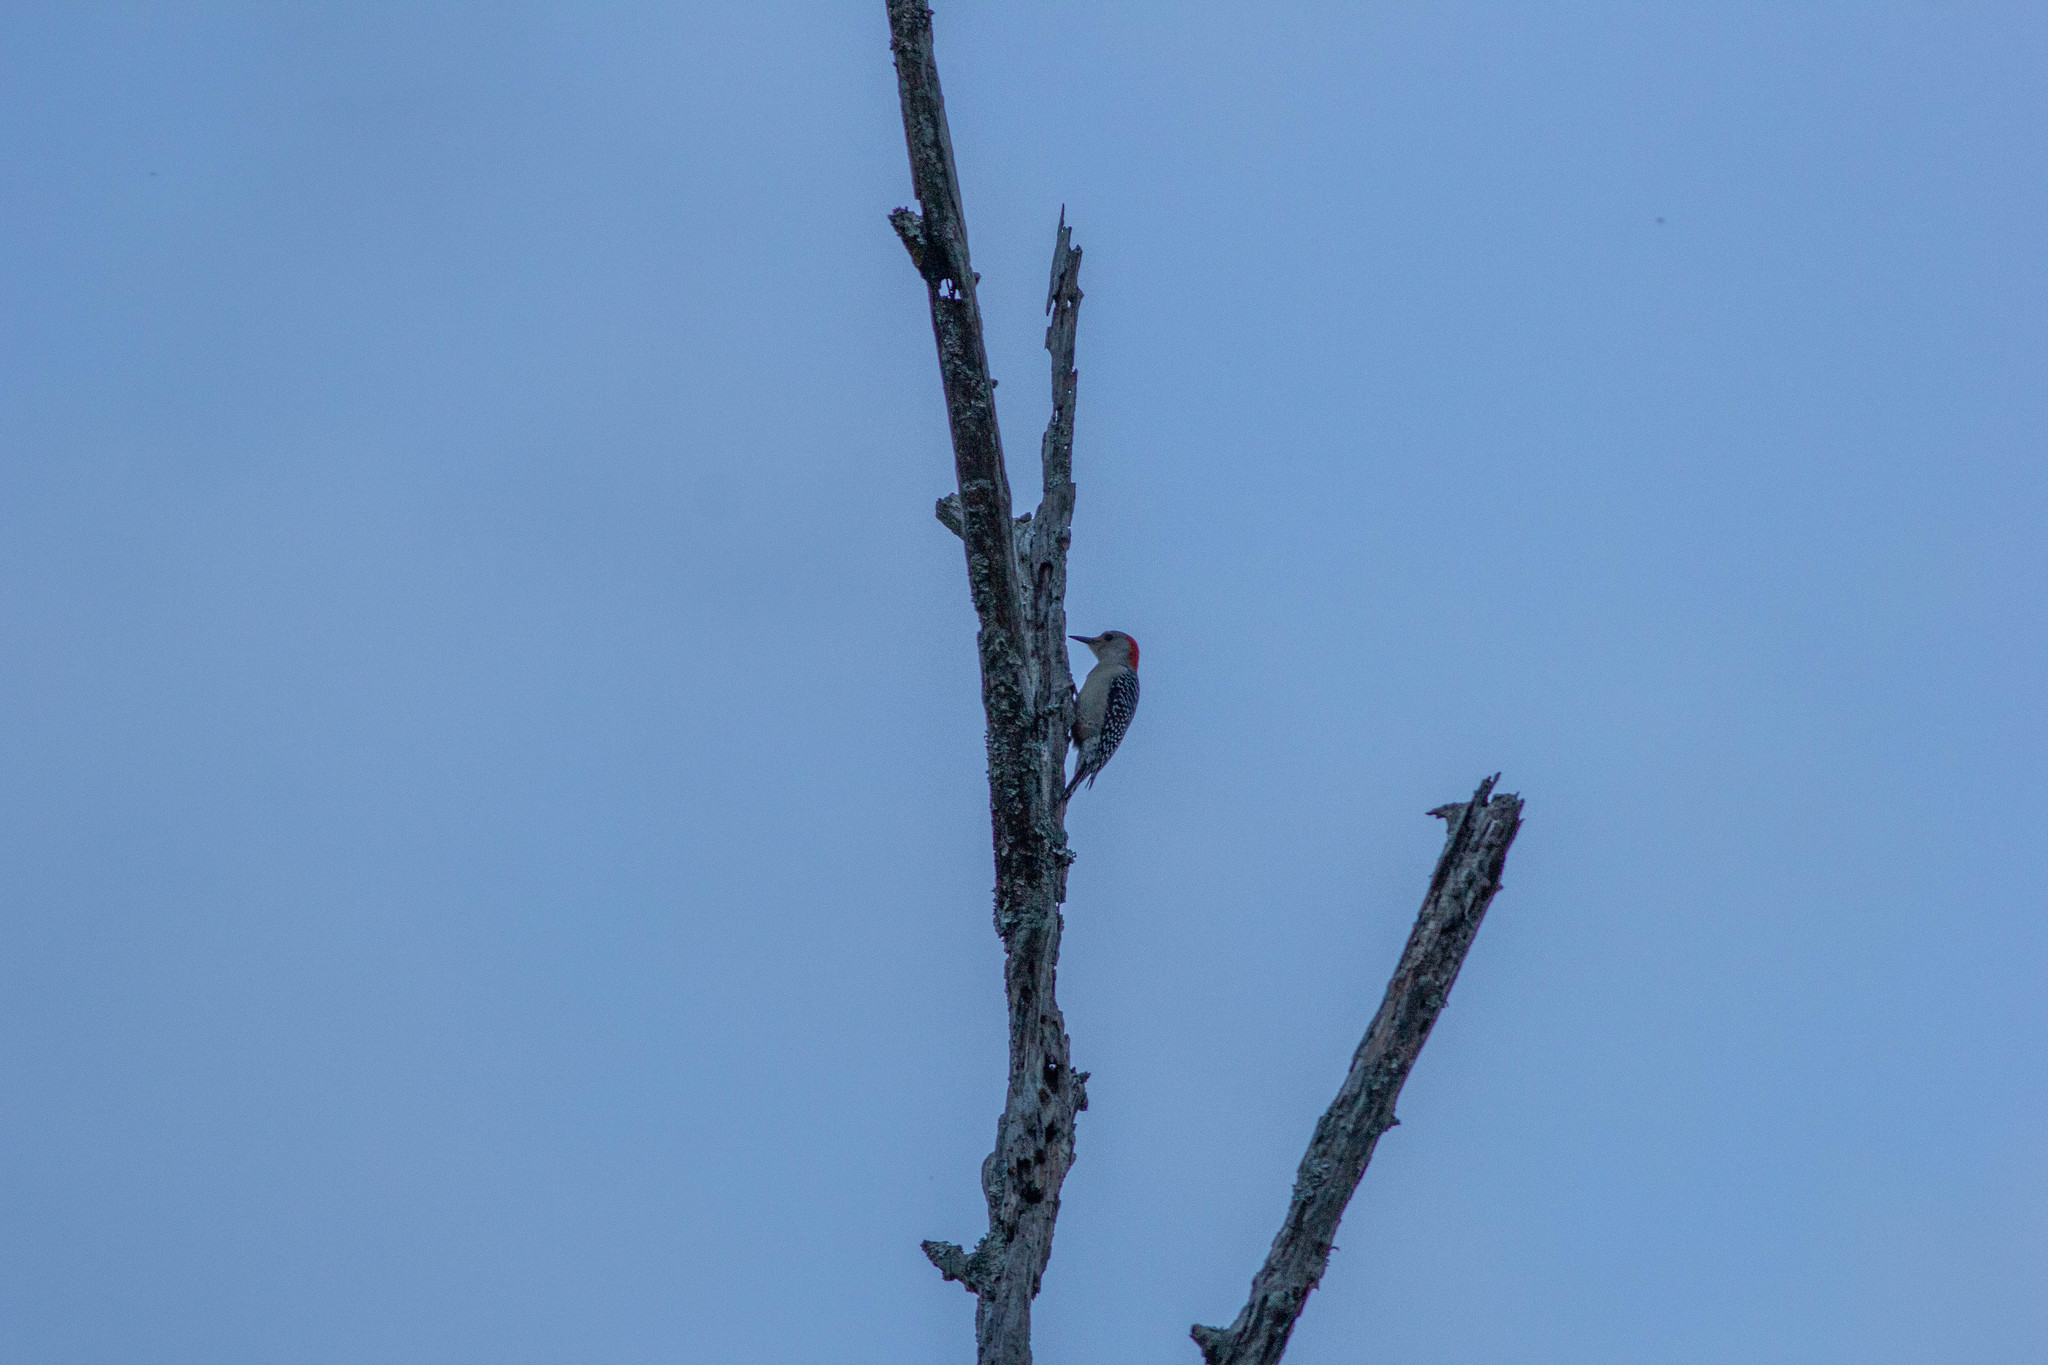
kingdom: Animalia
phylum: Chordata
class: Aves
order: Piciformes
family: Picidae
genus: Melanerpes
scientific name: Melanerpes carolinus
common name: Red-bellied woodpecker
